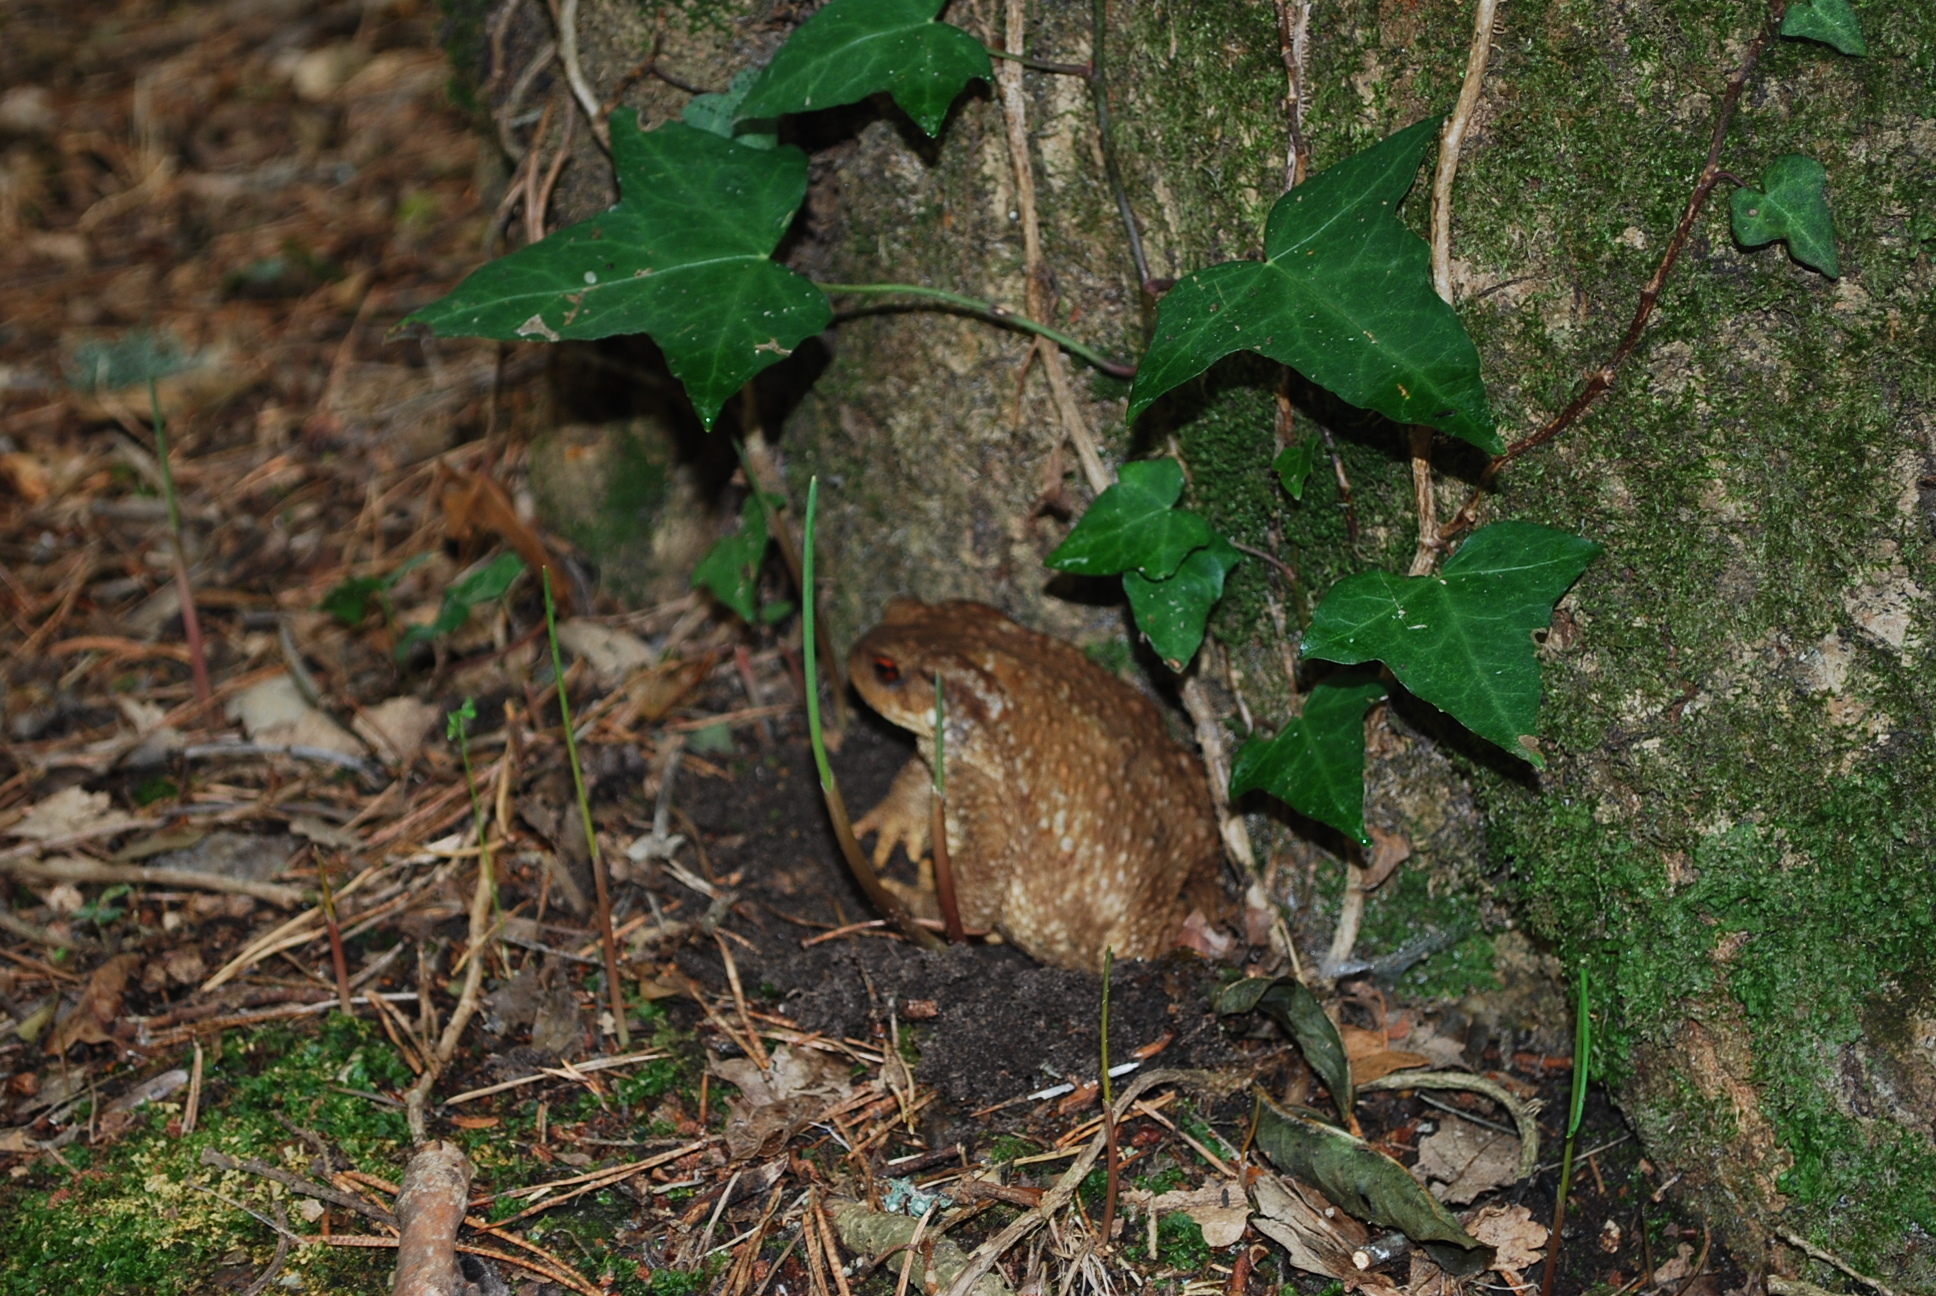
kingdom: Animalia
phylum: Chordata
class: Amphibia
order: Anura
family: Bufonidae
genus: Bufo
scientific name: Bufo spinosus
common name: Western common toad
